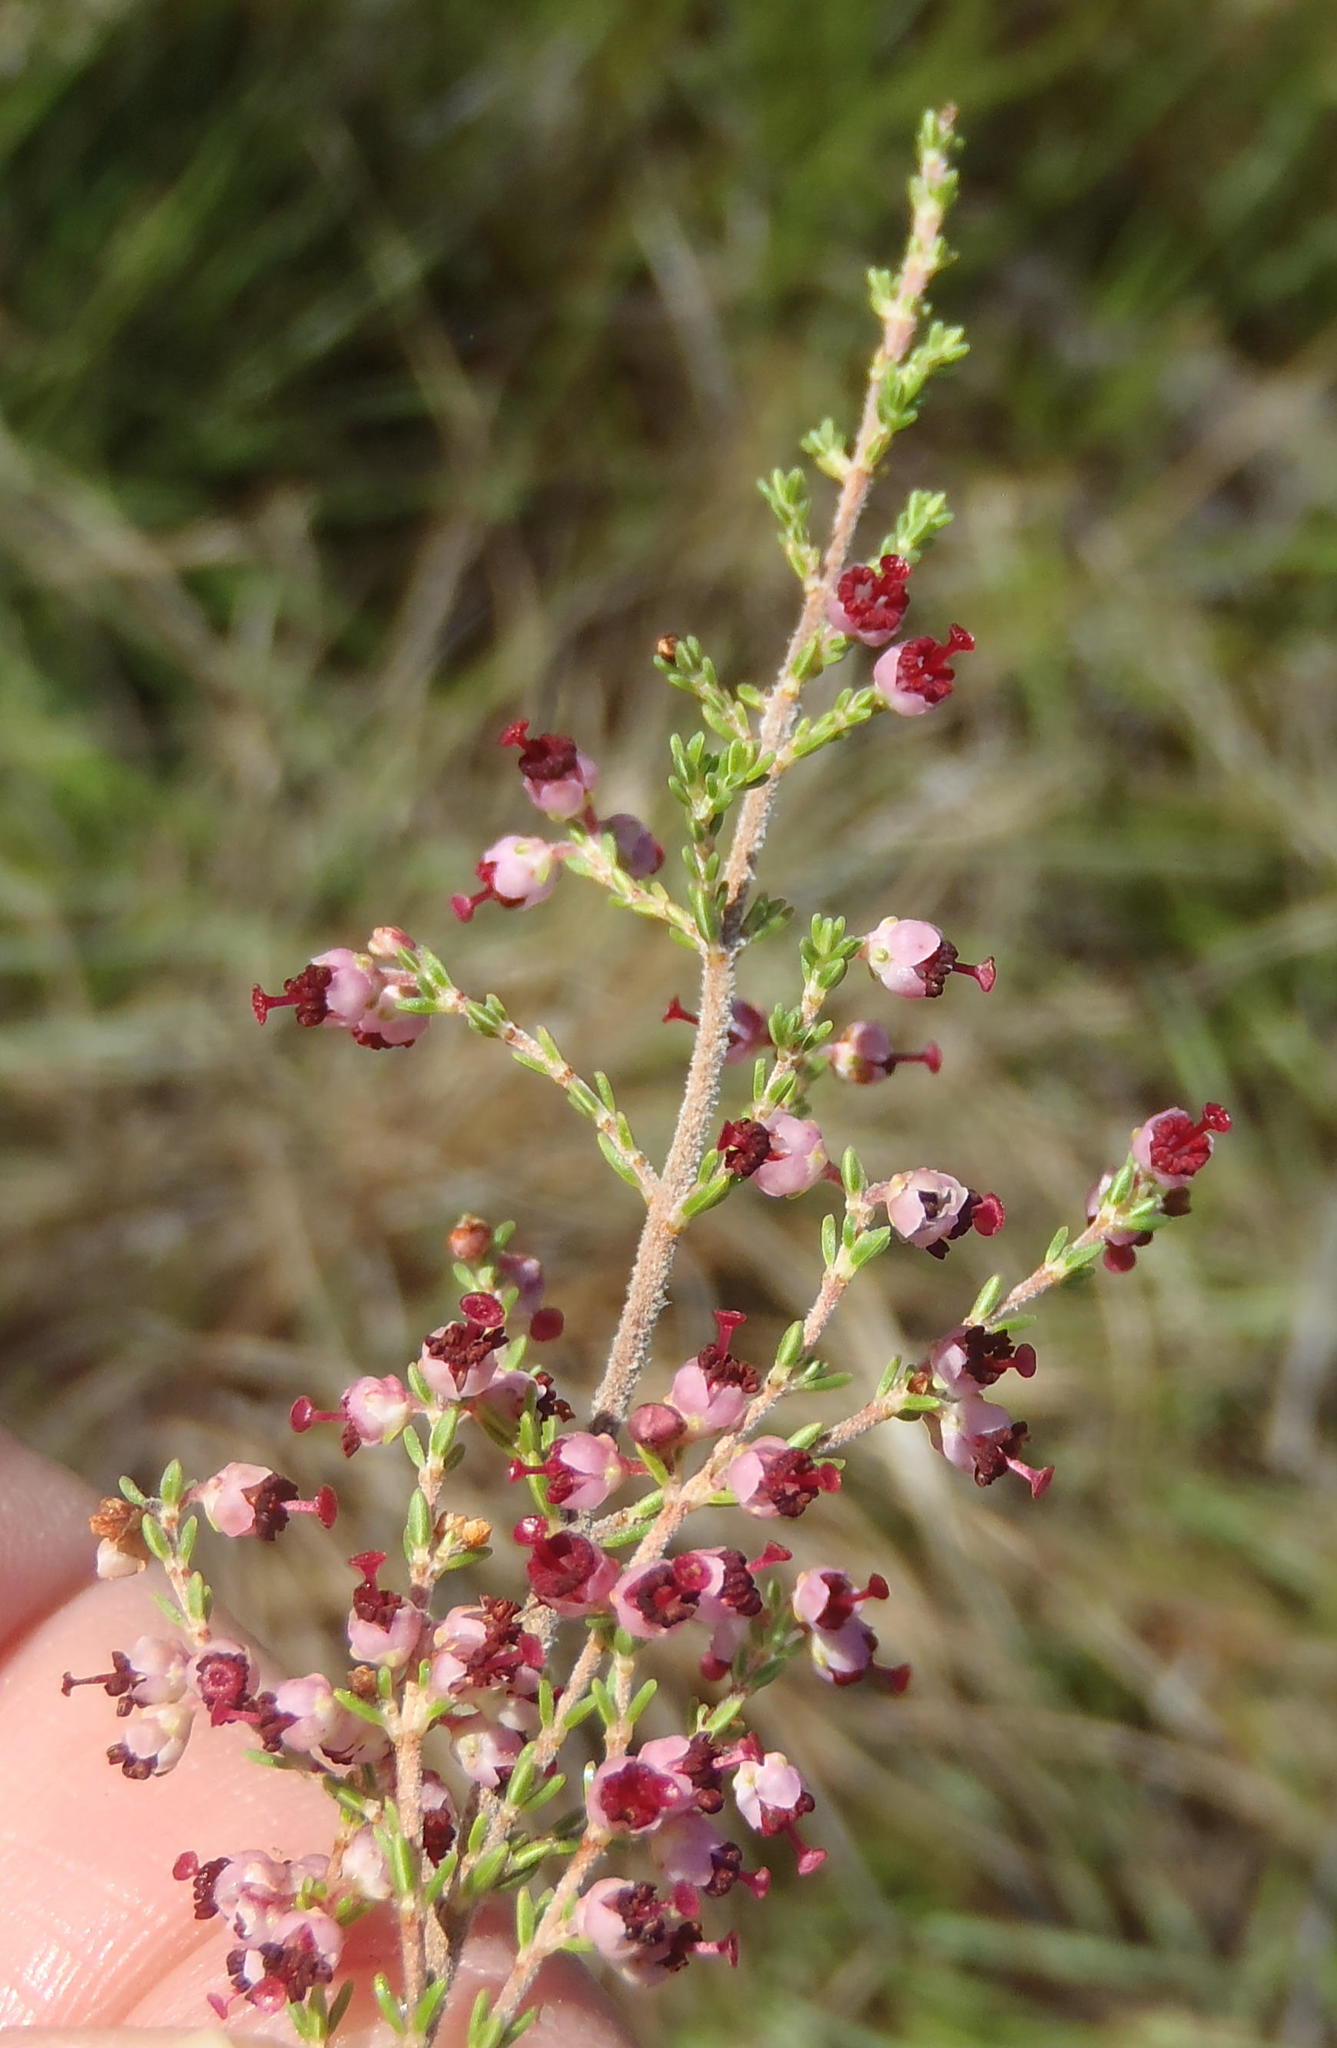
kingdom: Plantae
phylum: Tracheophyta
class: Magnoliopsida
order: Ericales
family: Ericaceae
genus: Erica
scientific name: Erica peltata
